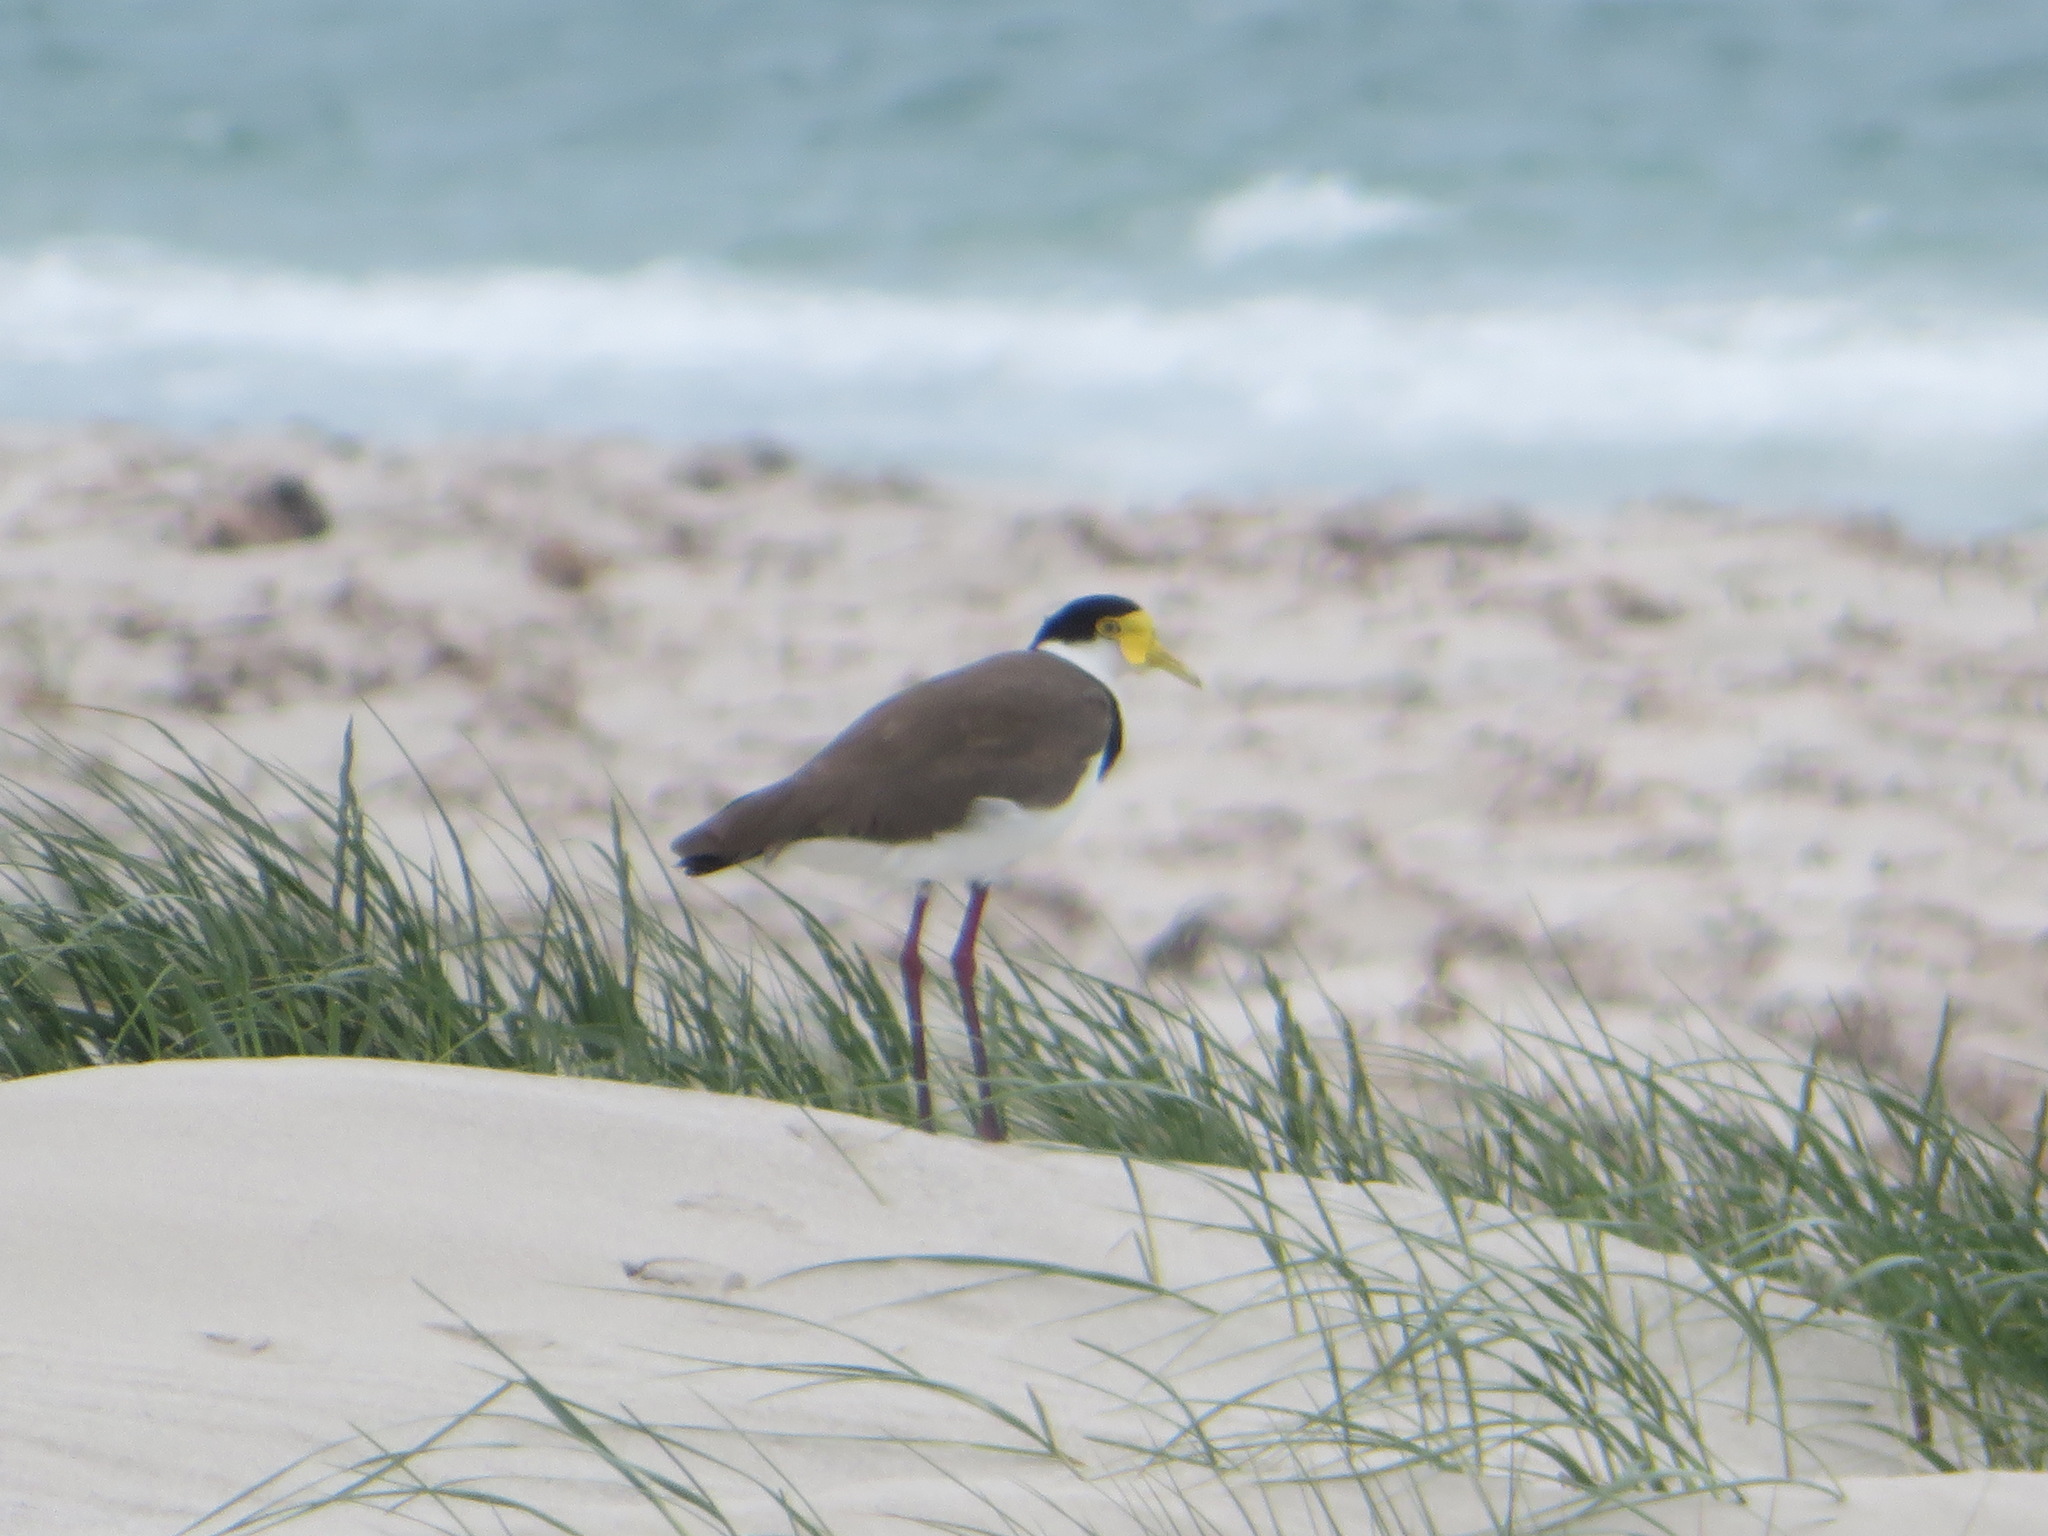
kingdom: Animalia
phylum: Chordata
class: Aves
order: Charadriiformes
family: Charadriidae
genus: Vanellus
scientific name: Vanellus miles
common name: Masked lapwing
